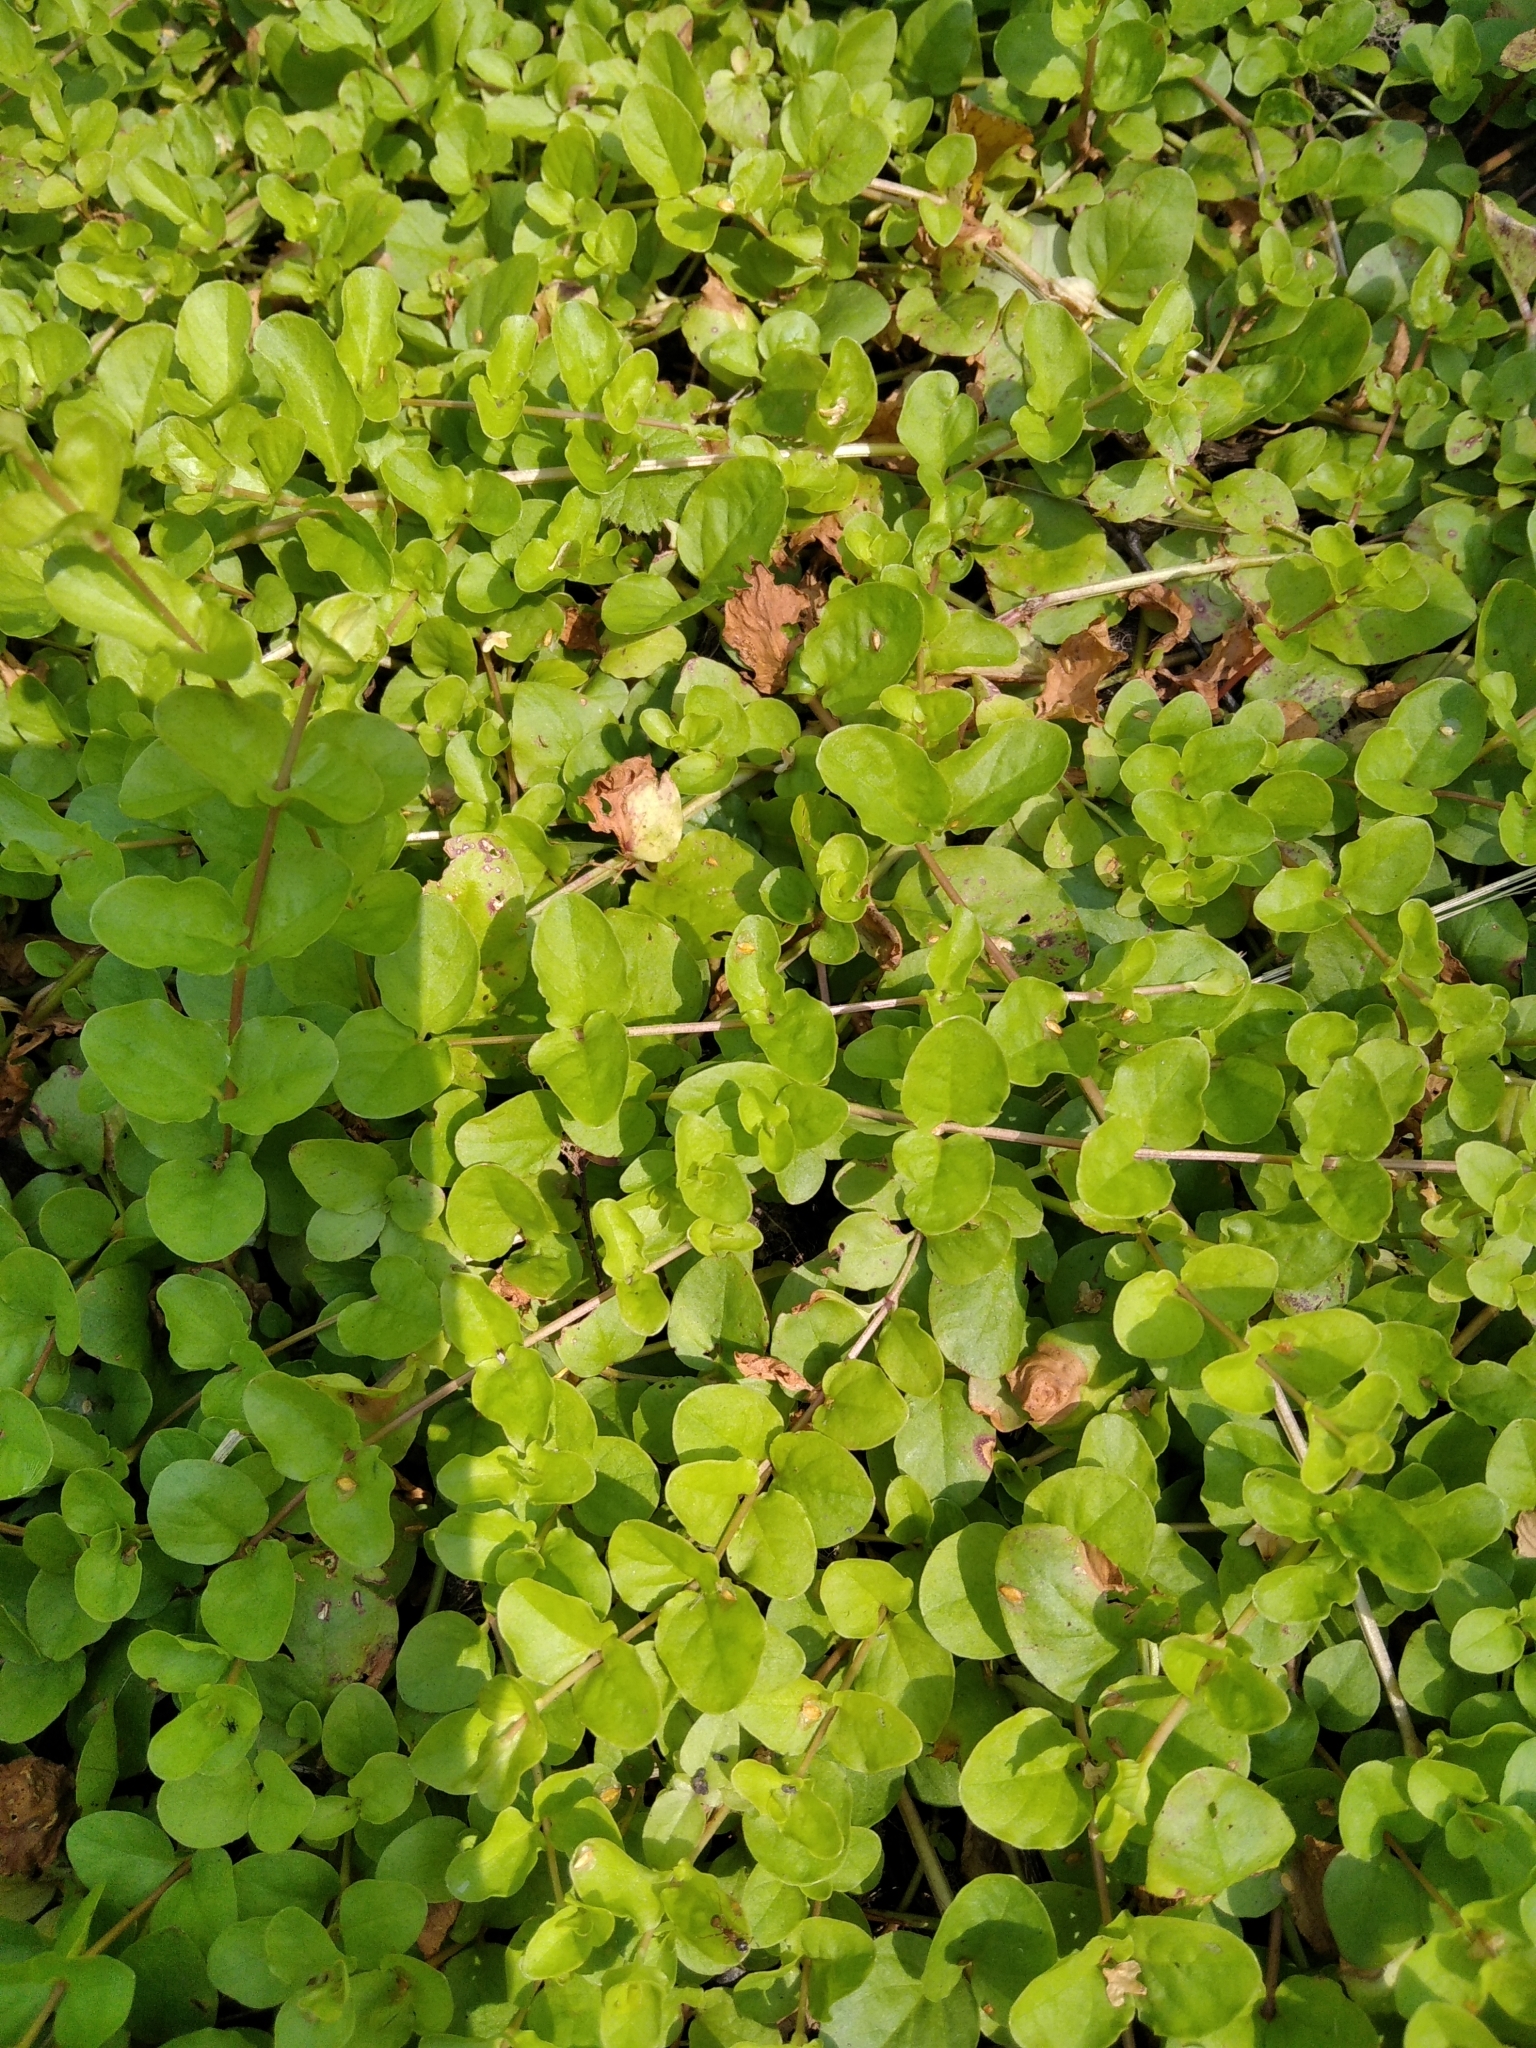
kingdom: Plantae
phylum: Tracheophyta
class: Magnoliopsida
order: Ericales
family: Primulaceae
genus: Lysimachia
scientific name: Lysimachia nummularia
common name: Moneywort
